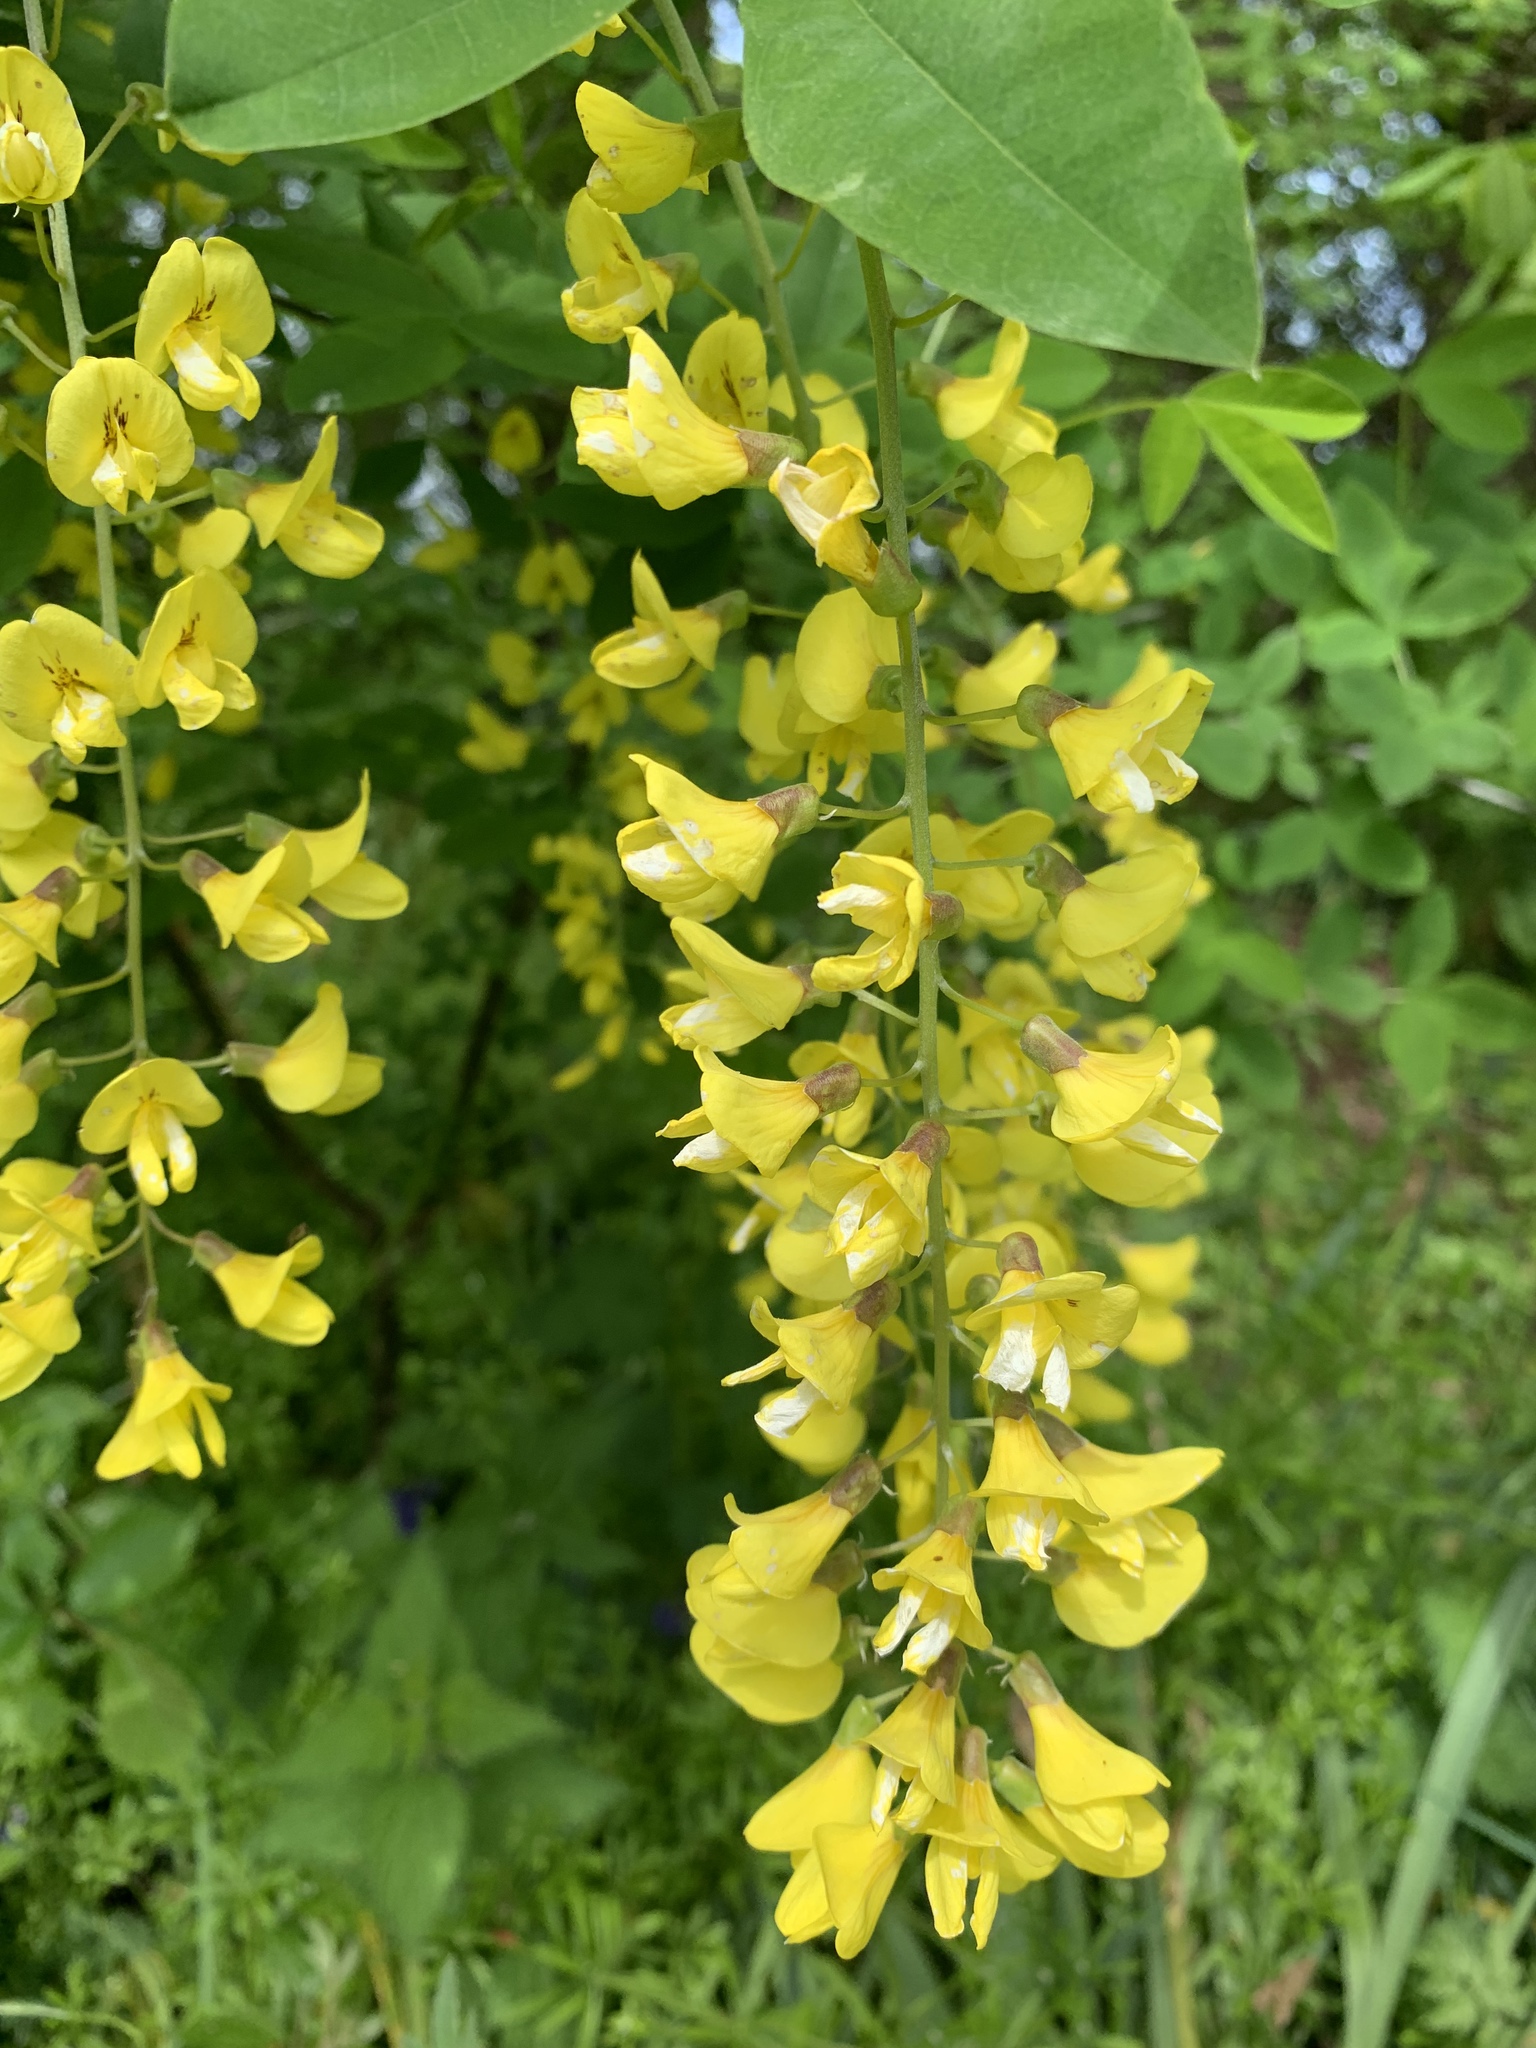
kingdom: Plantae
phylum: Tracheophyta
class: Magnoliopsida
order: Fabales
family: Fabaceae
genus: Laburnum
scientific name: Laburnum anagyroides
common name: Laburnum
